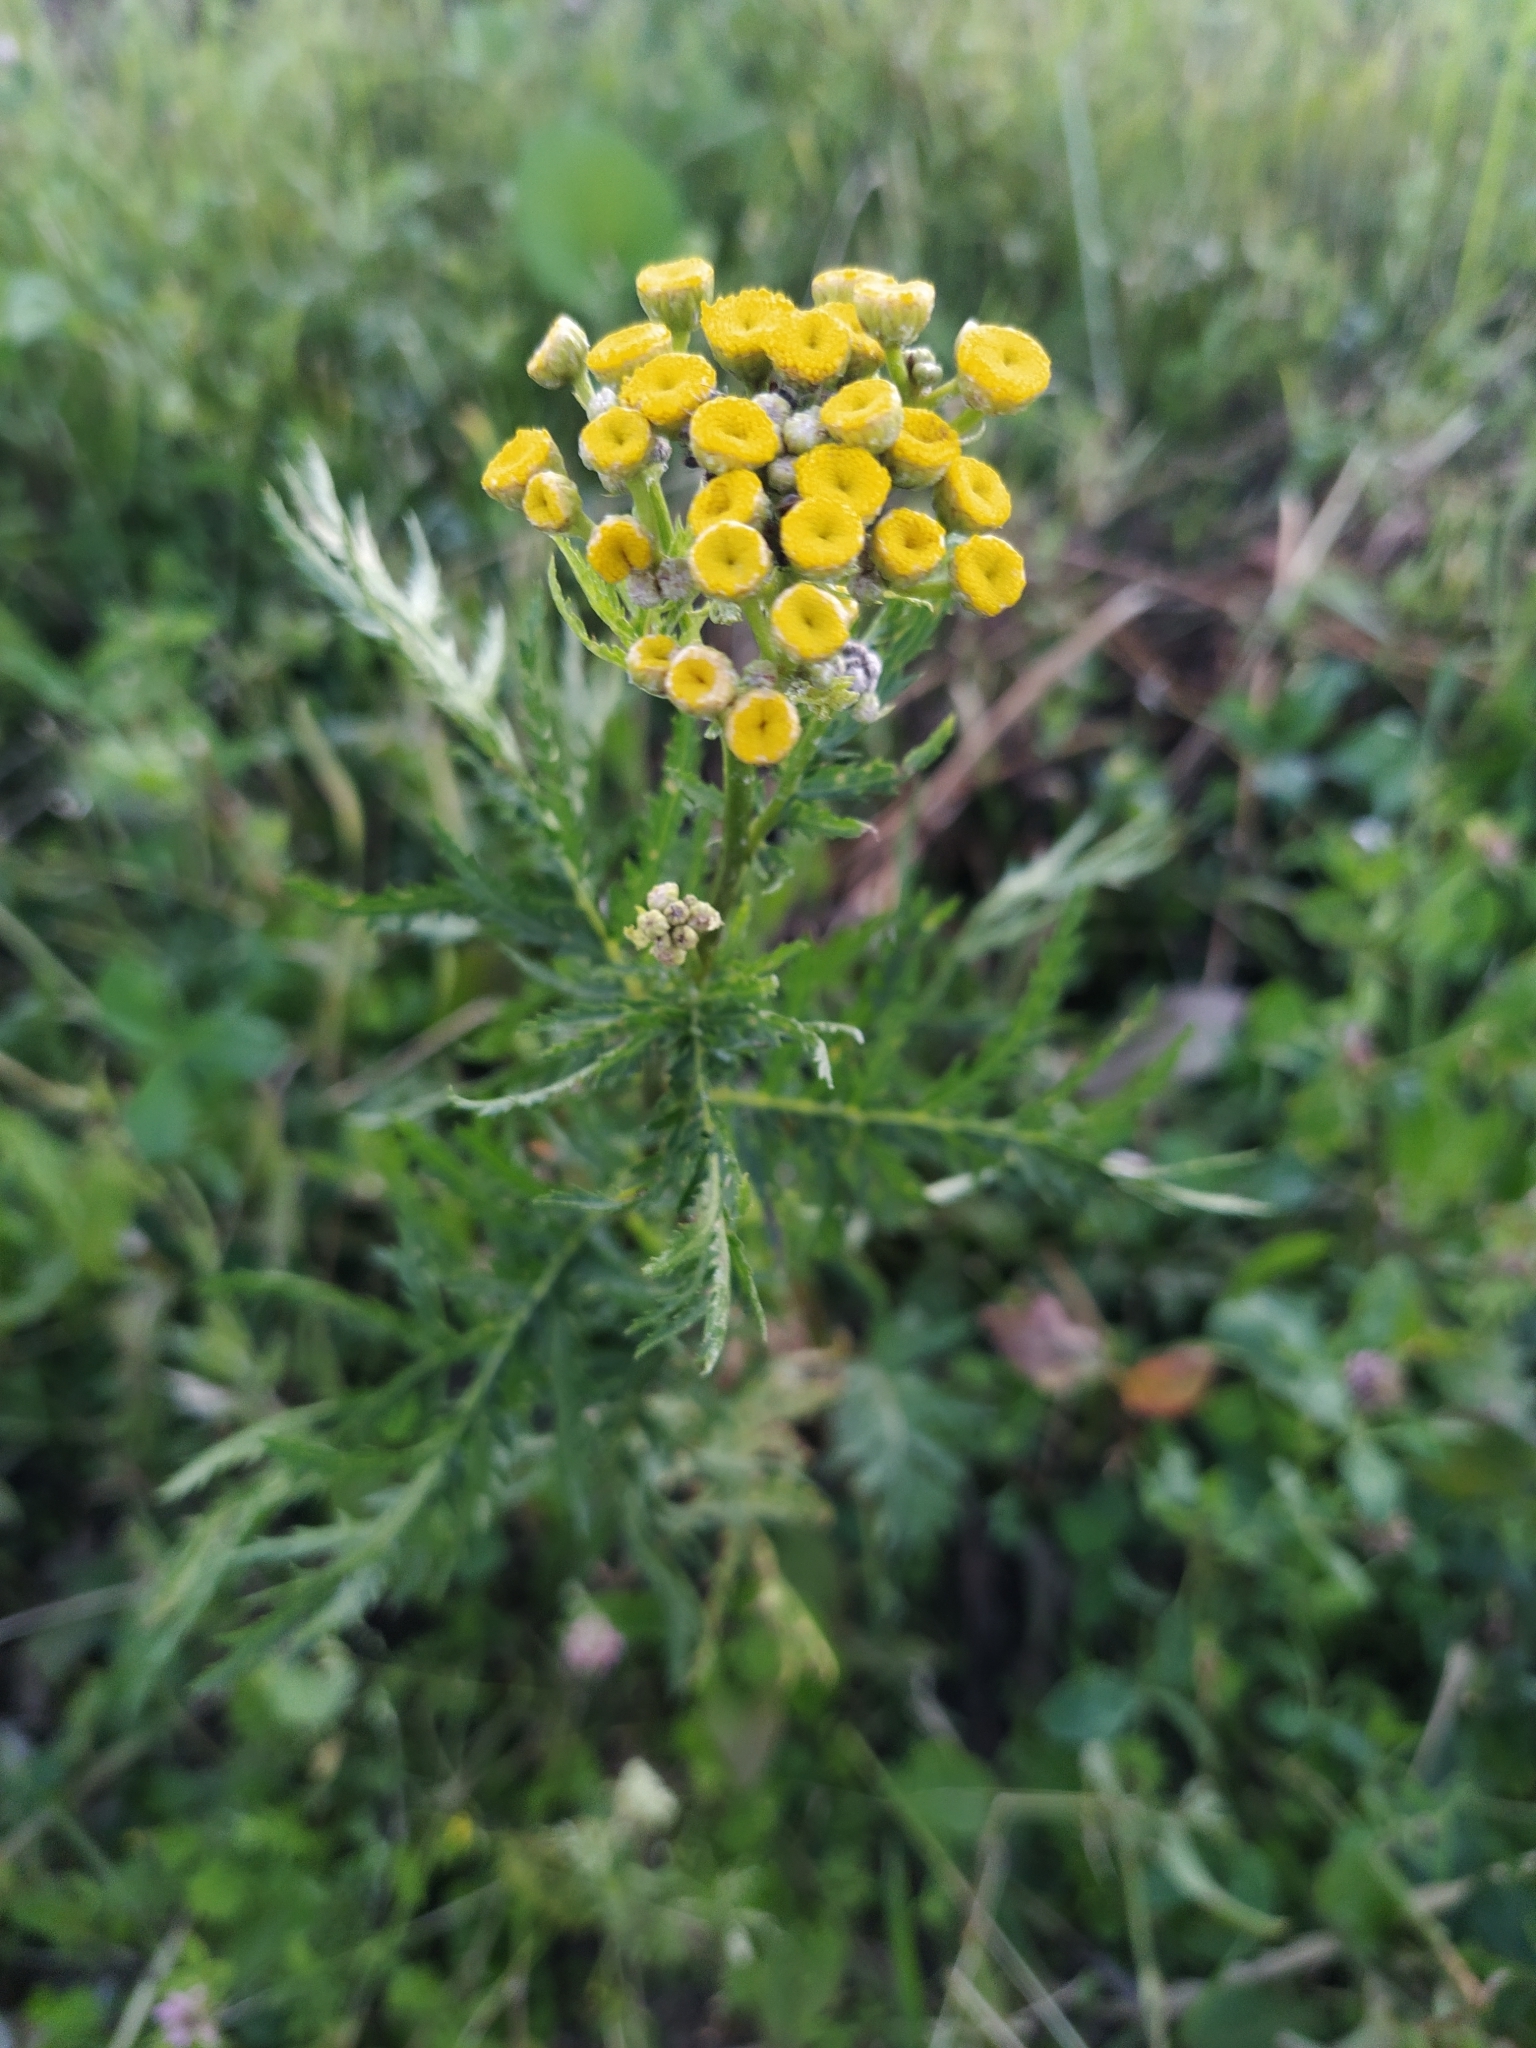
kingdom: Plantae
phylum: Tracheophyta
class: Magnoliopsida
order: Asterales
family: Asteraceae
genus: Tanacetum
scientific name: Tanacetum vulgare
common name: Common tansy
